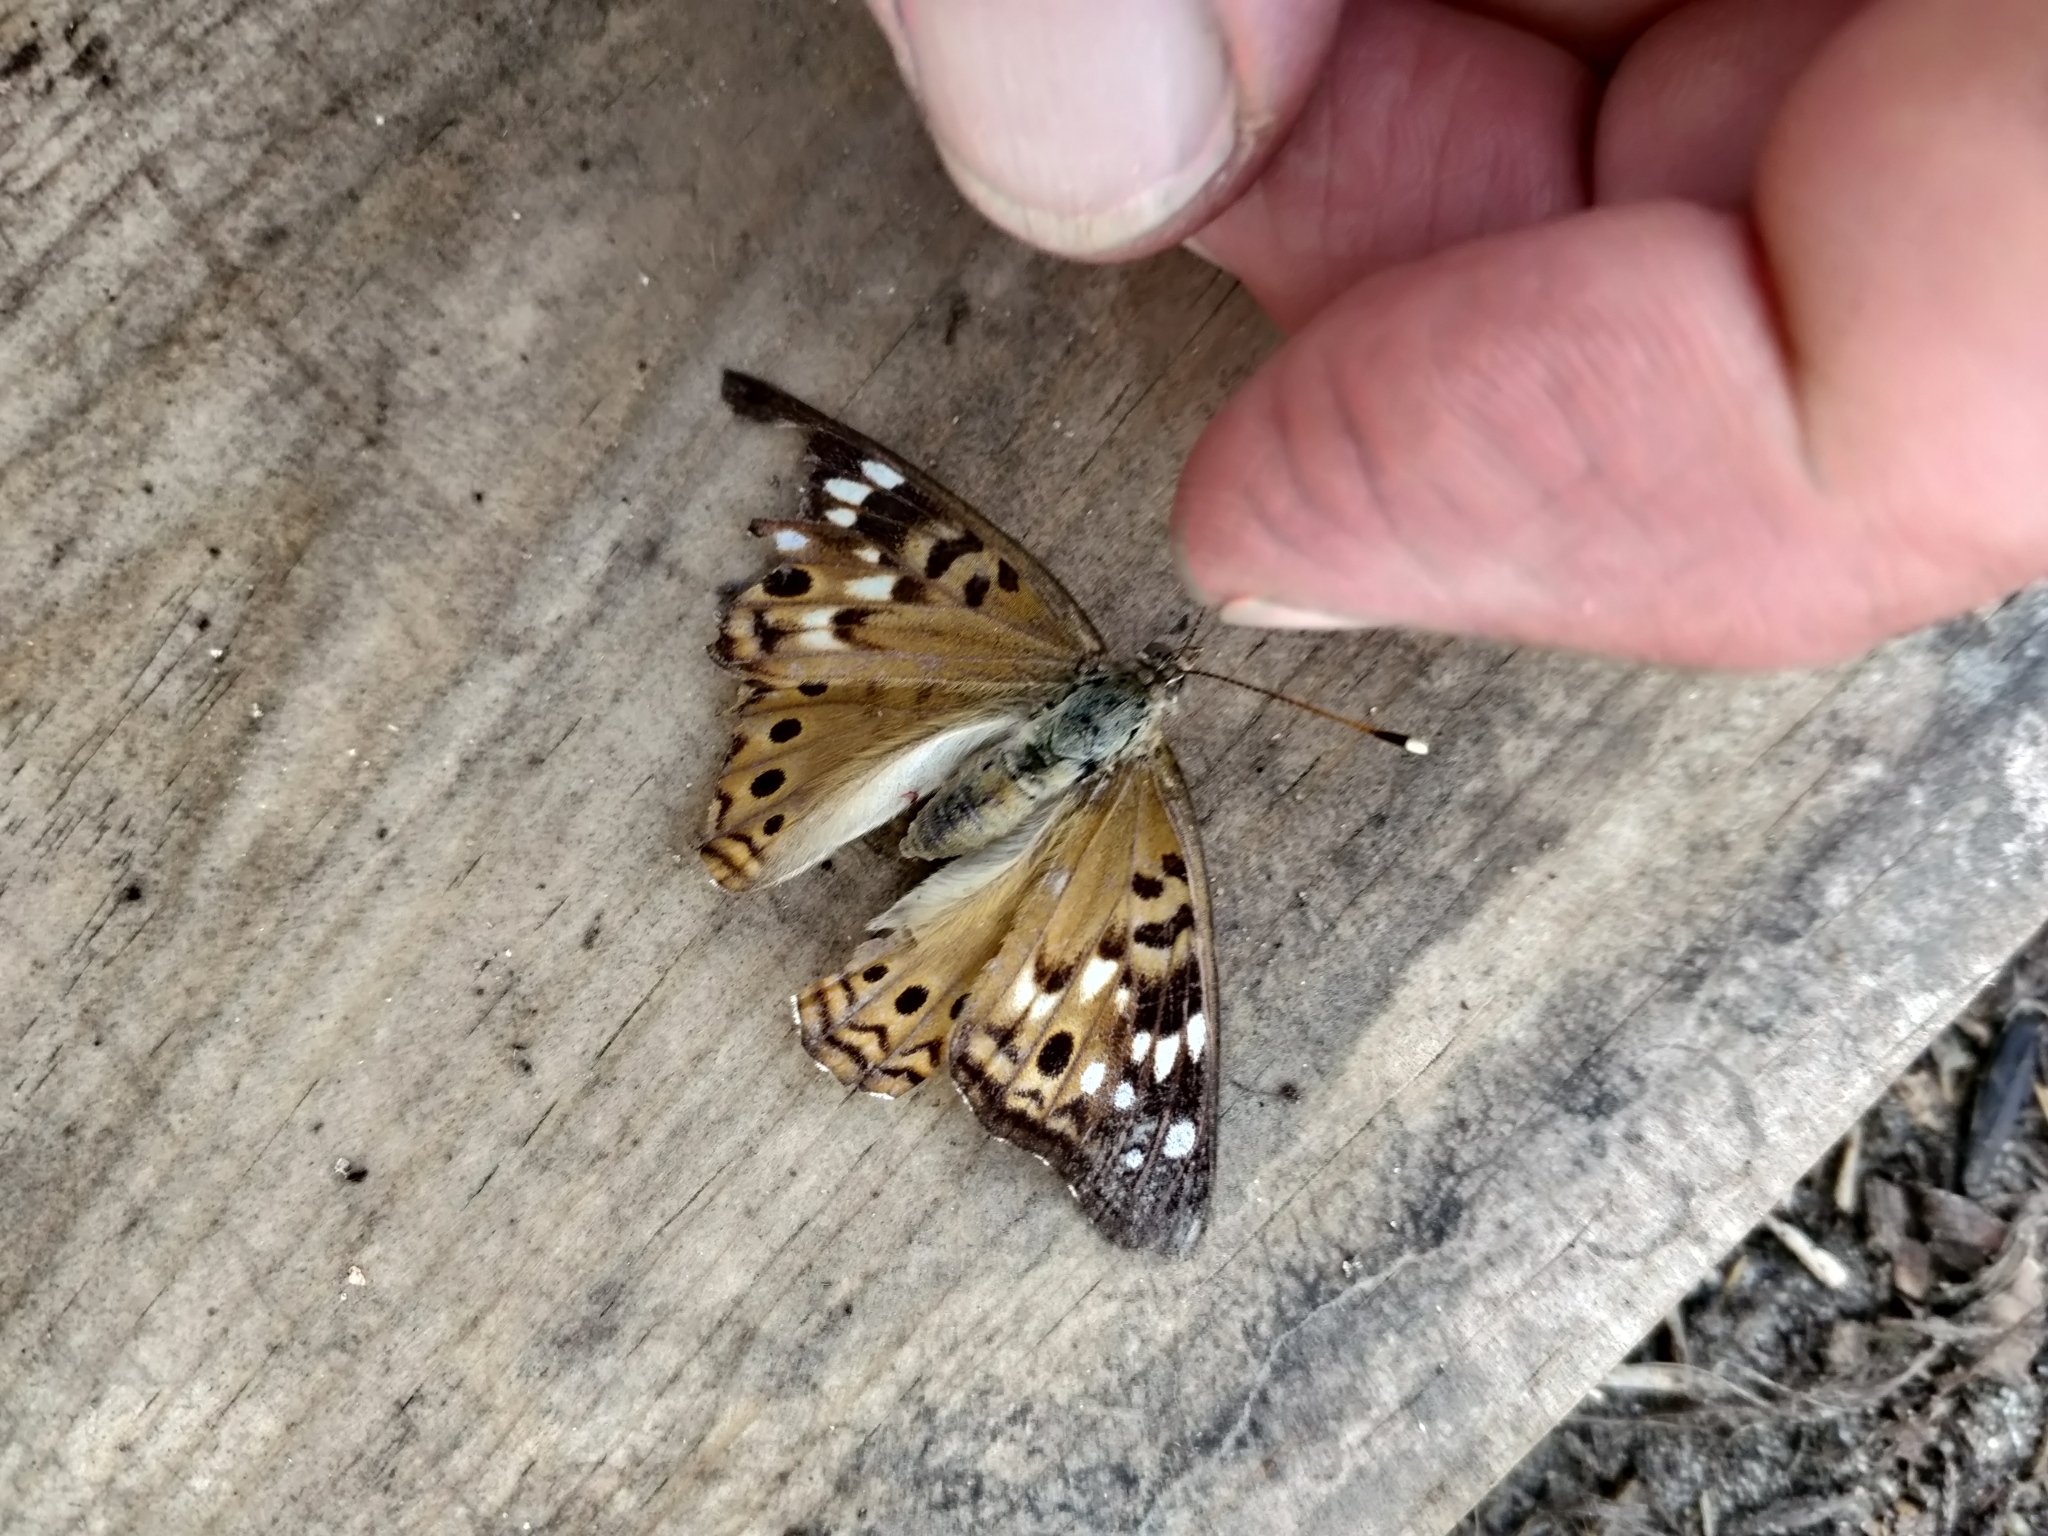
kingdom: Animalia
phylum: Arthropoda
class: Insecta
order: Lepidoptera
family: Nymphalidae
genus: Asterocampa
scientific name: Asterocampa celtis
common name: Hackberry emperor
